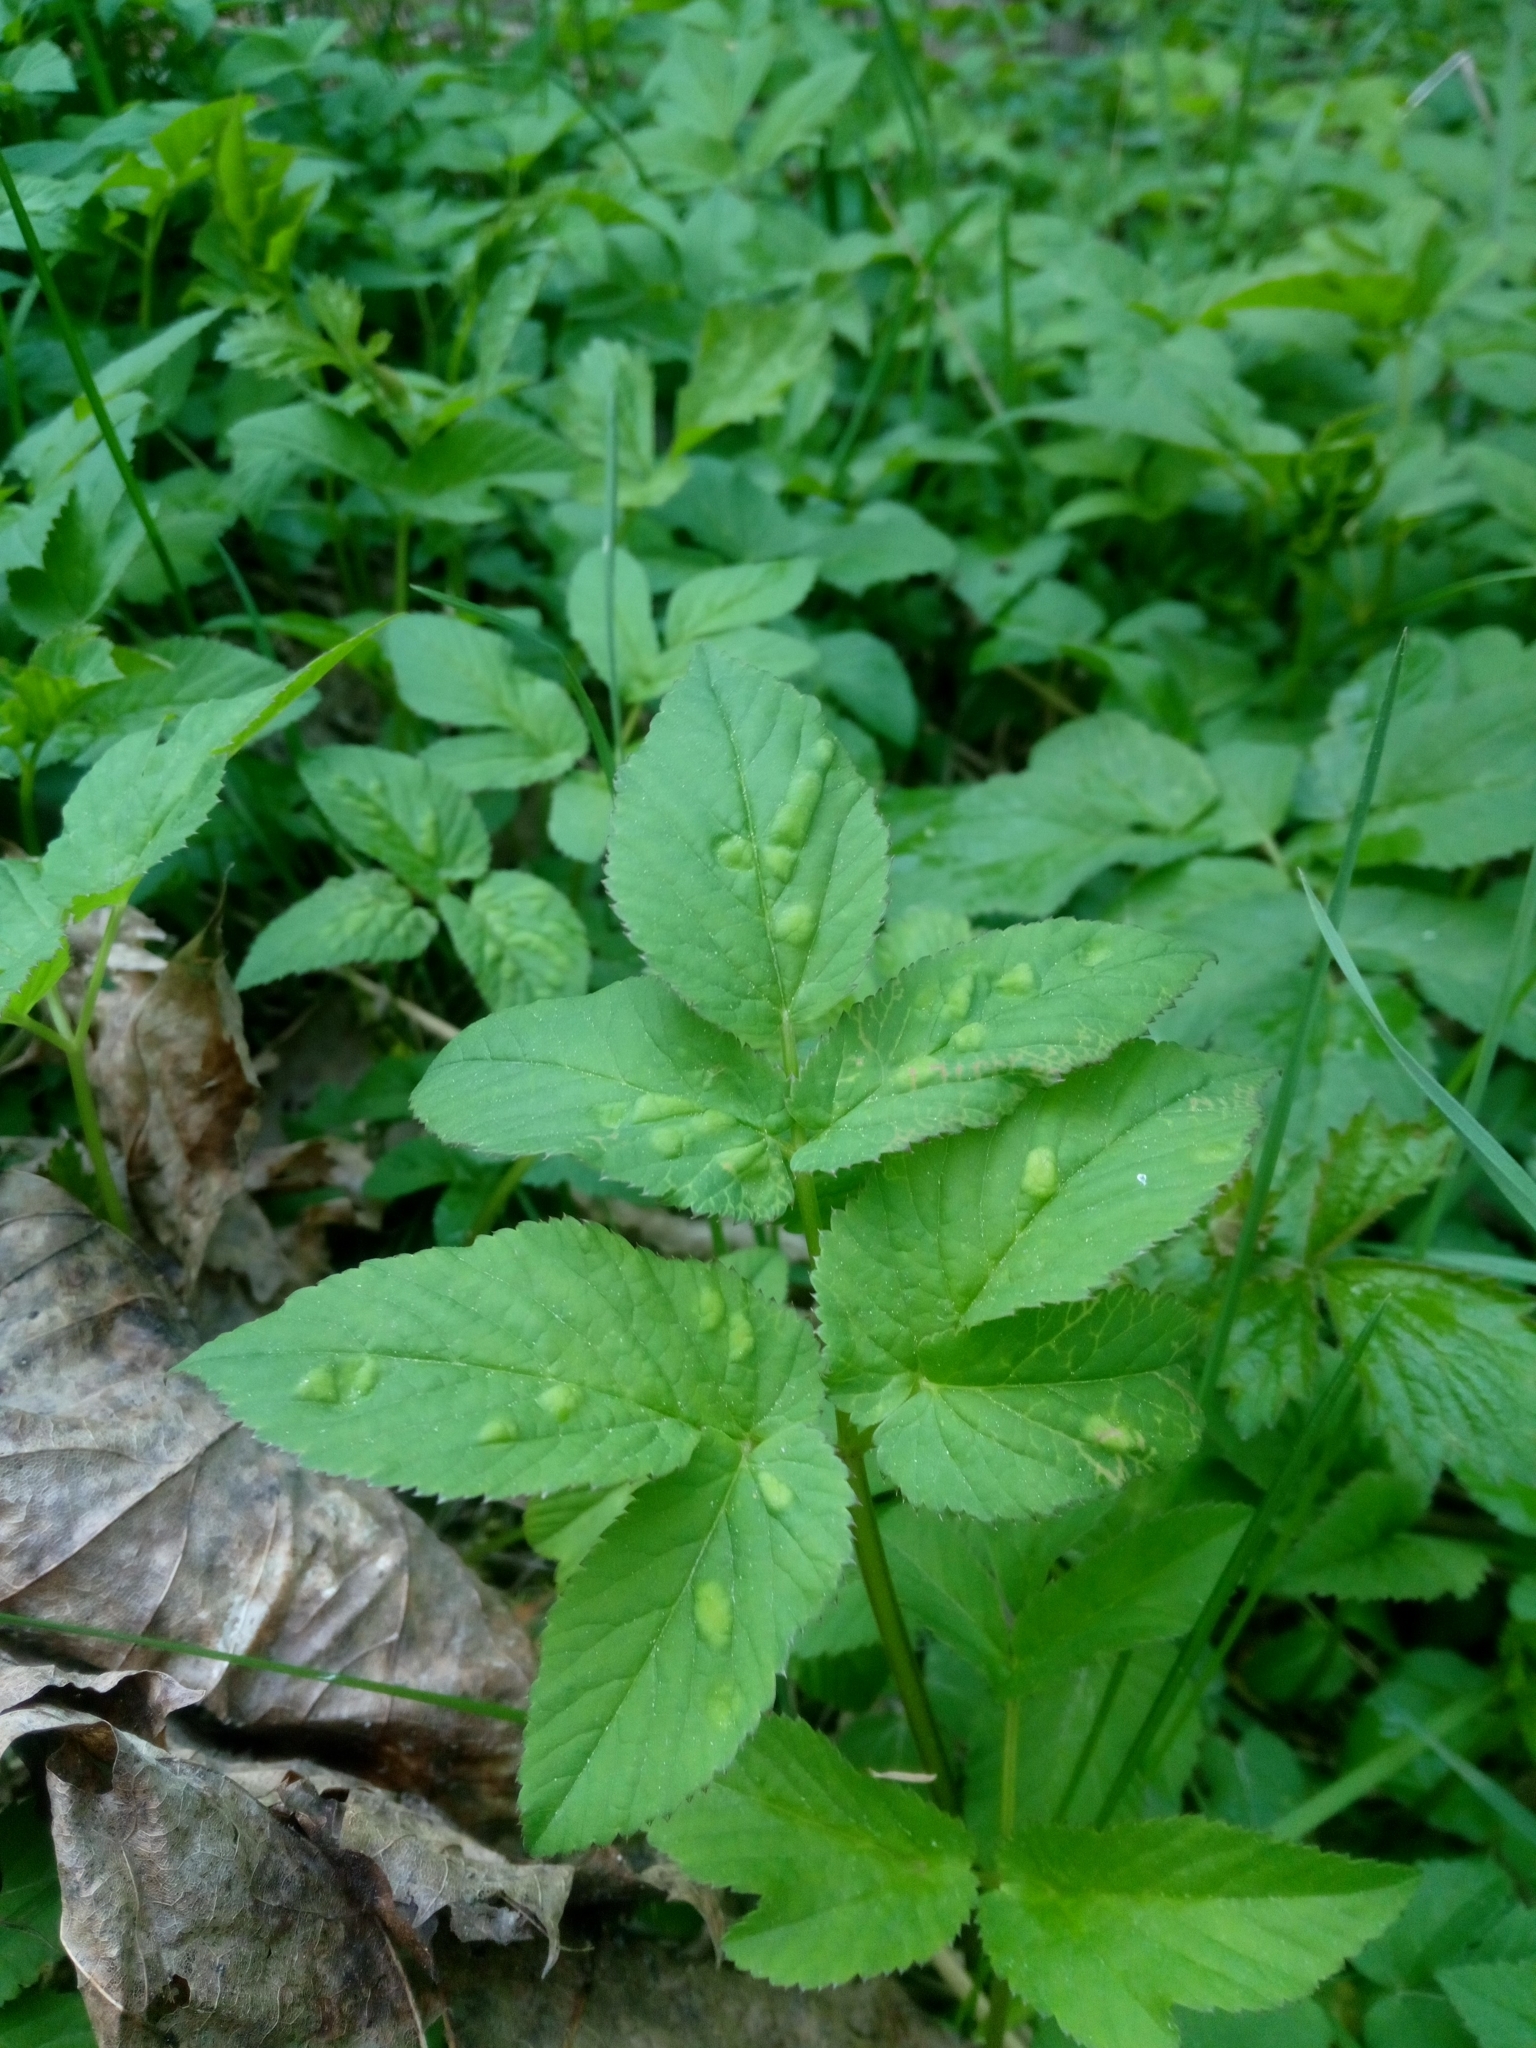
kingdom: Animalia
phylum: Arthropoda
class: Insecta
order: Hemiptera
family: Triozidae
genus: Trioza
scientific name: Trioza flavipennis
